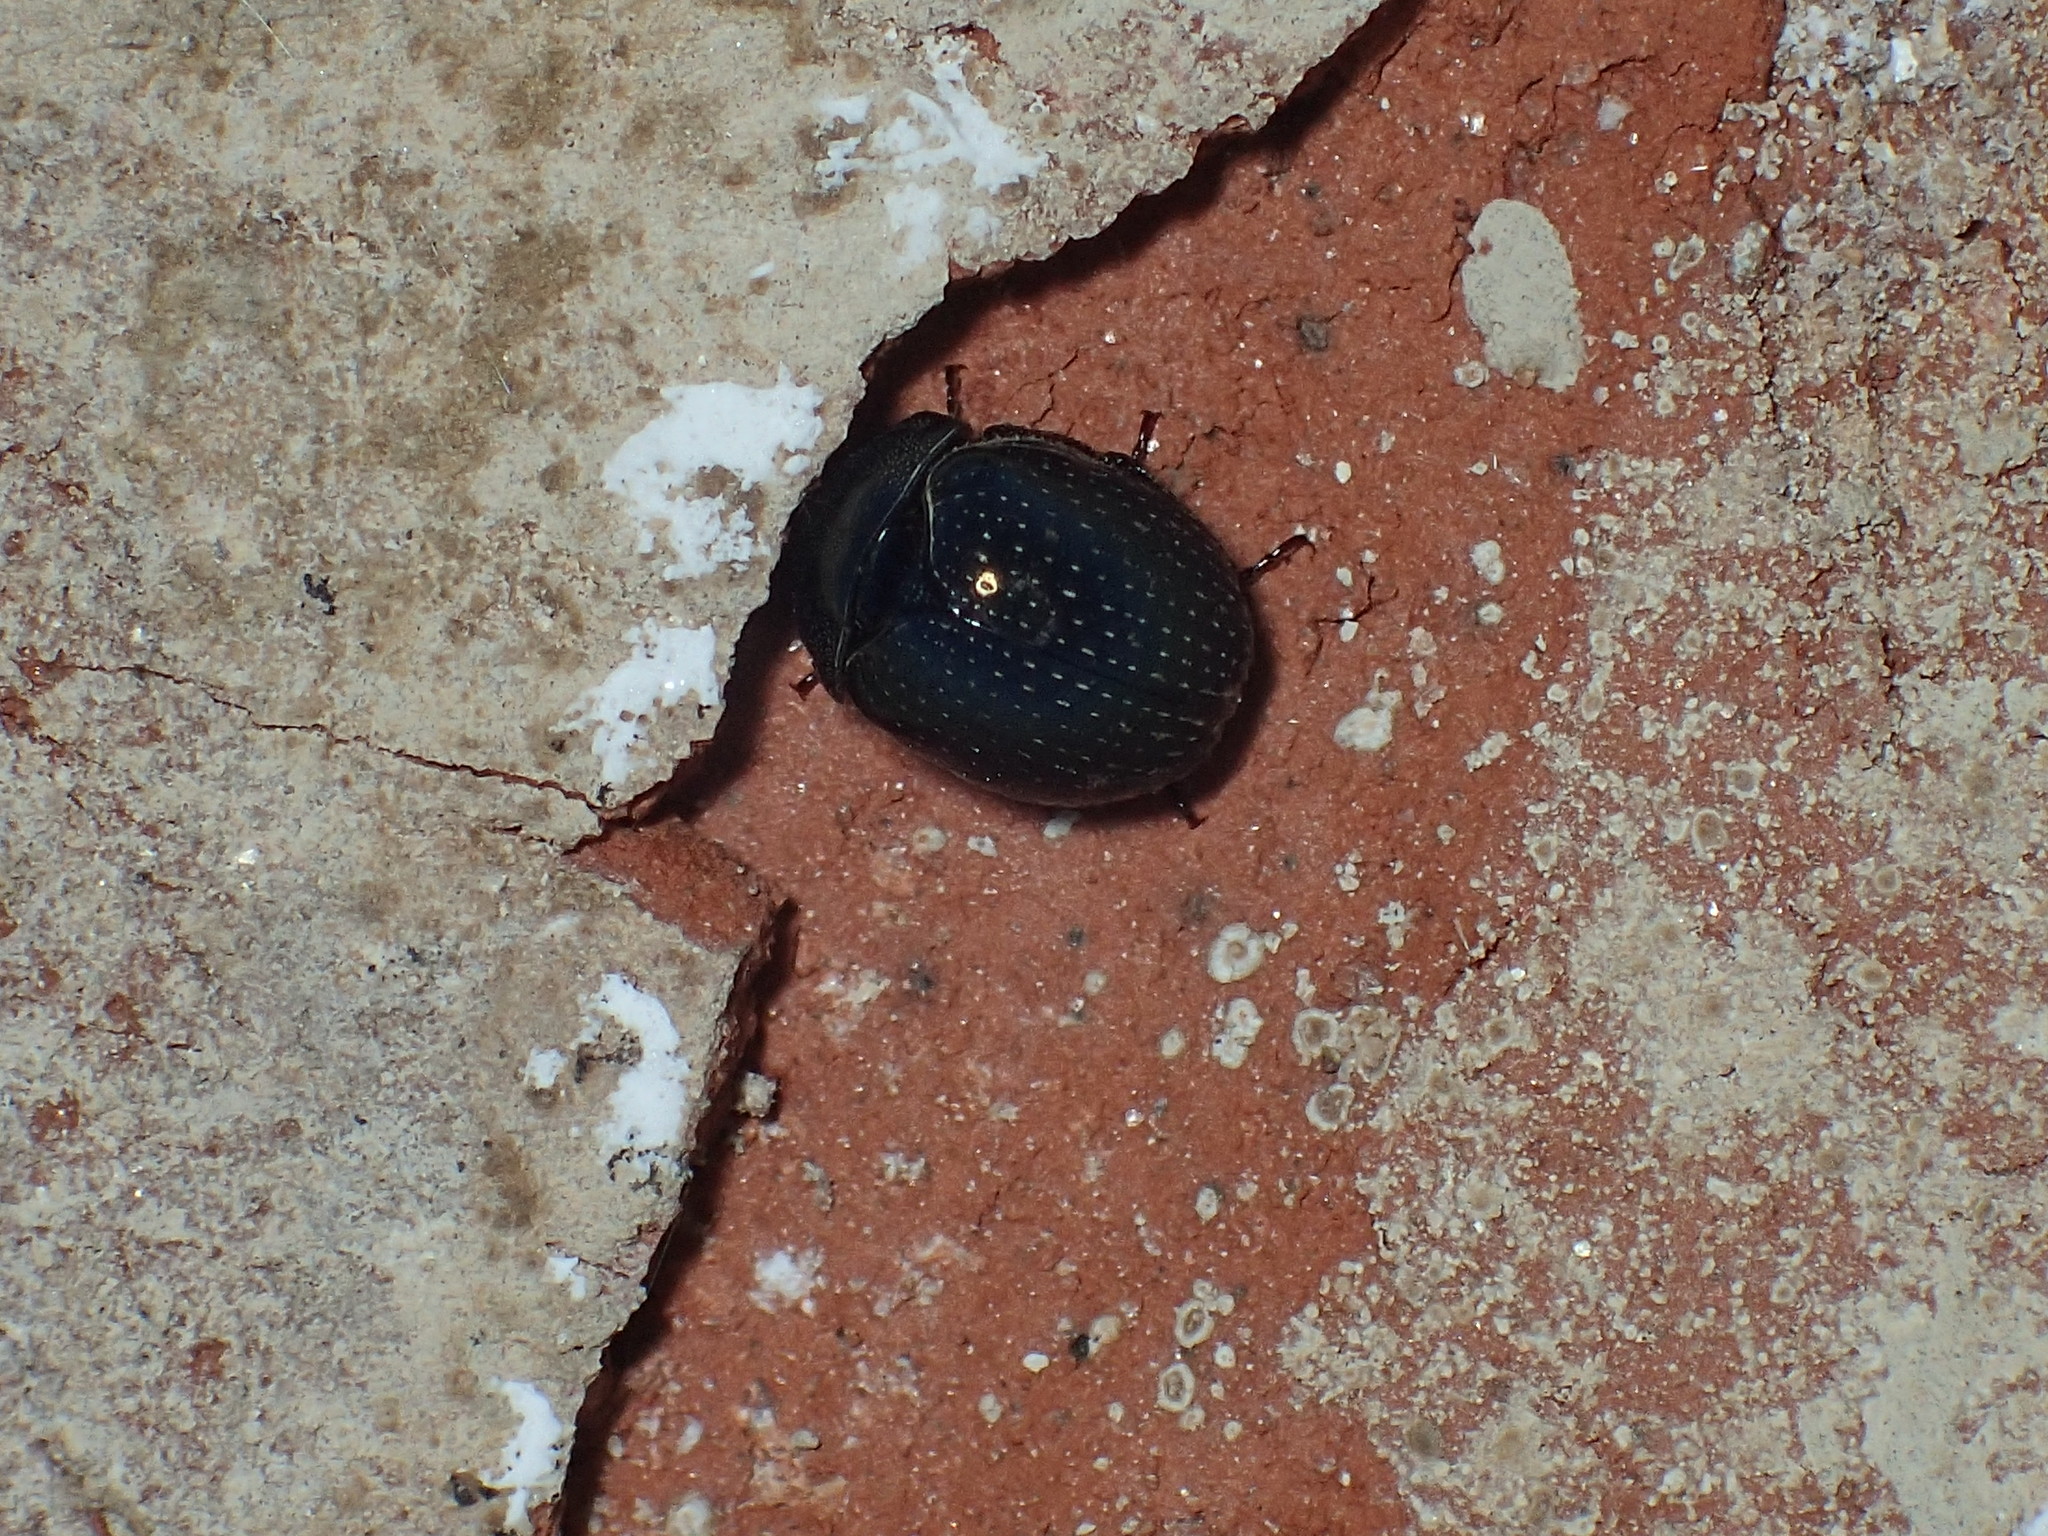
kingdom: Animalia
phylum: Arthropoda
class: Insecta
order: Coleoptera
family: Hybosoridae
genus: Germarostes
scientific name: Germarostes globosus
